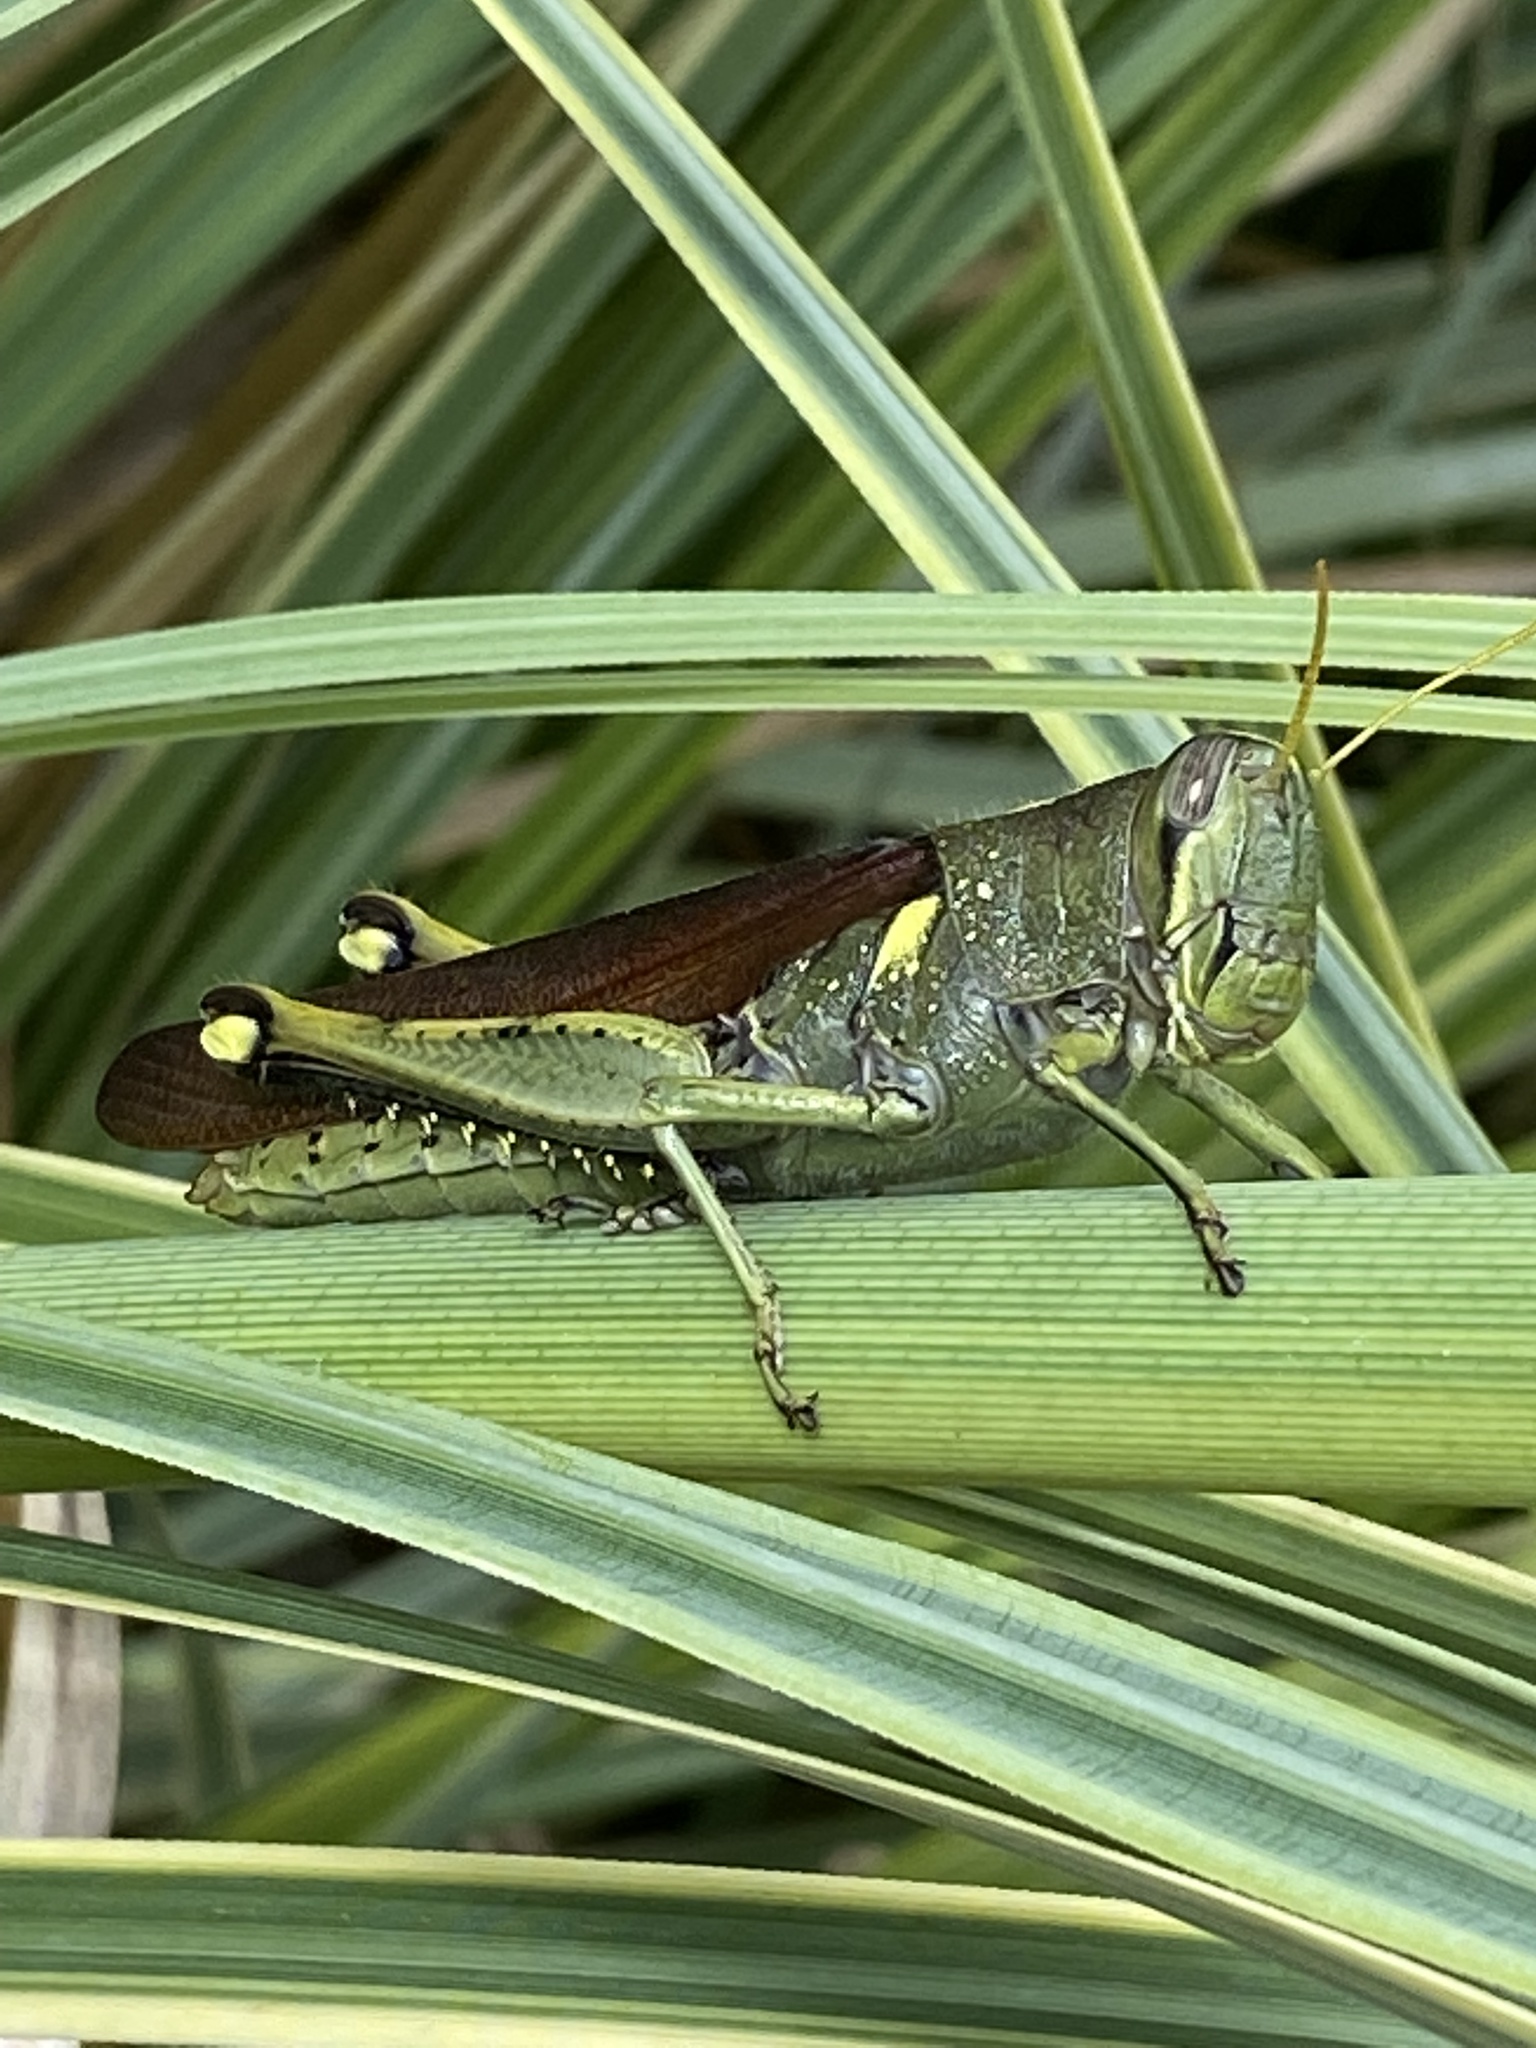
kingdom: Animalia
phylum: Arthropoda
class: Insecta
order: Orthoptera
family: Acrididae
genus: Schistocerca
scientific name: Schistocerca obscura
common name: Obscure bird grasshopper
